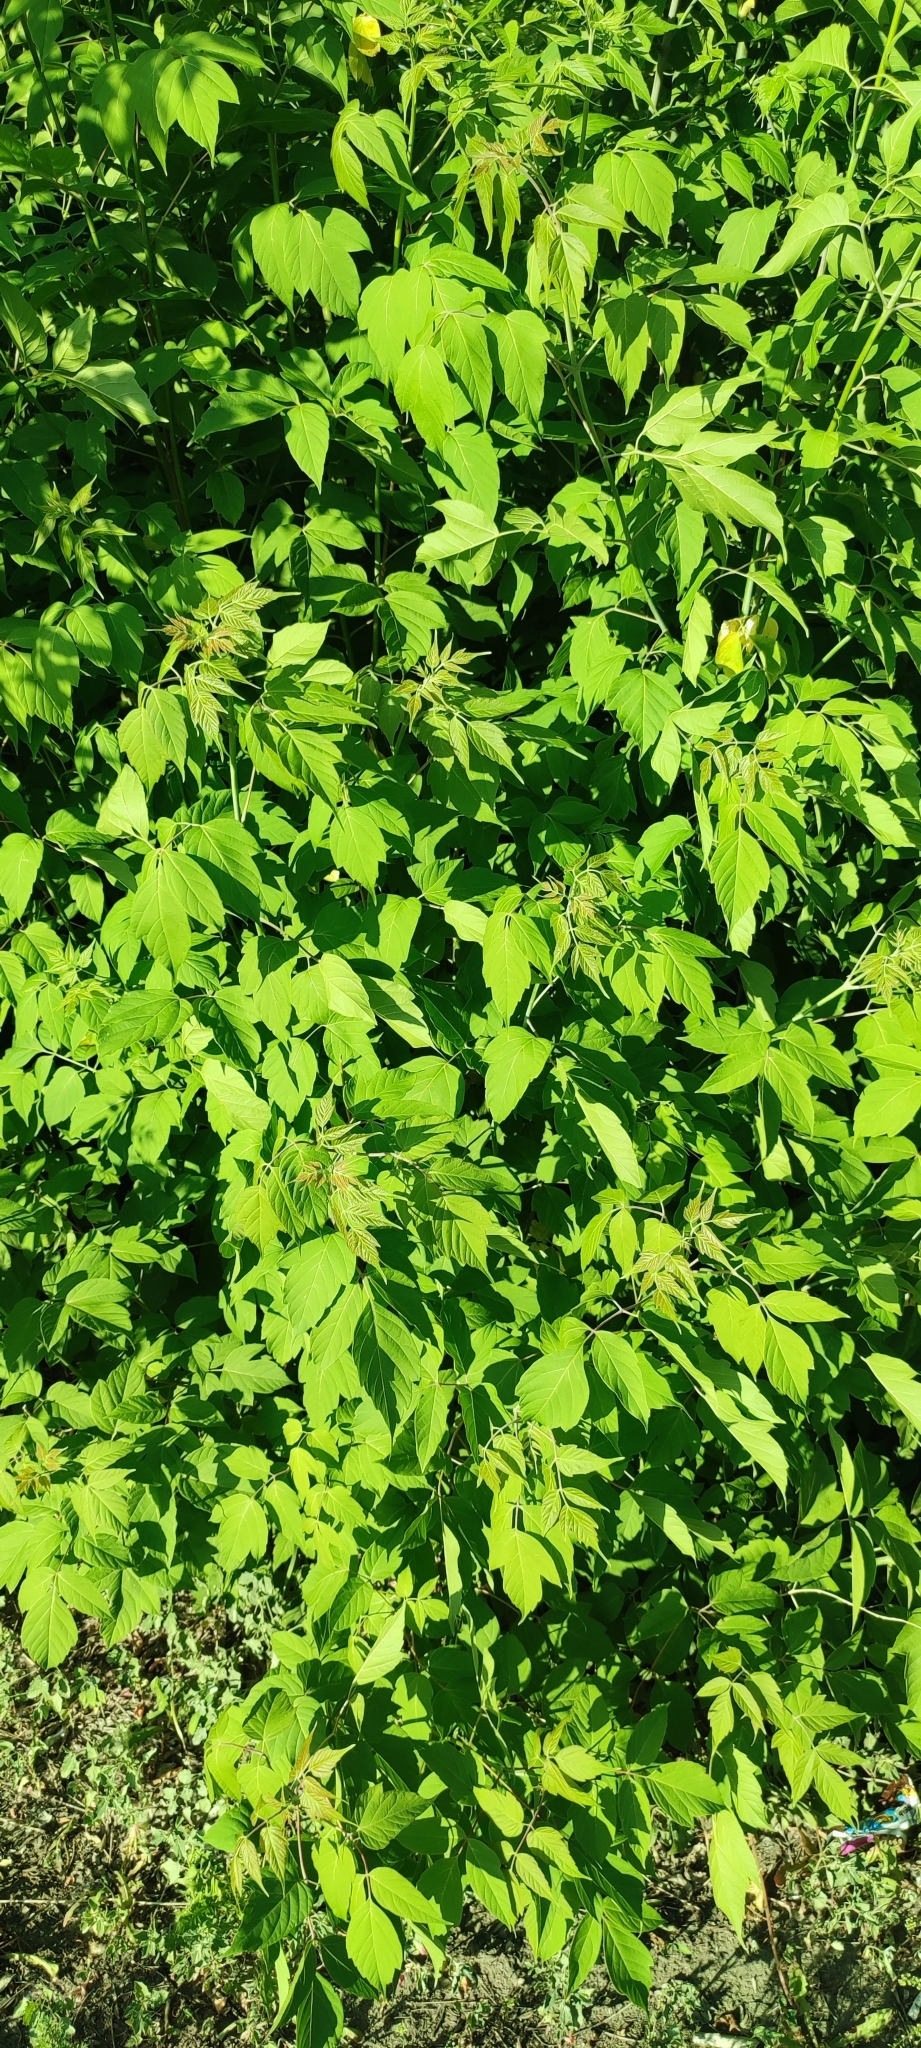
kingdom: Plantae
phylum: Tracheophyta
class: Magnoliopsida
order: Sapindales
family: Sapindaceae
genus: Acer
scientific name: Acer negundo
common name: Ashleaf maple
